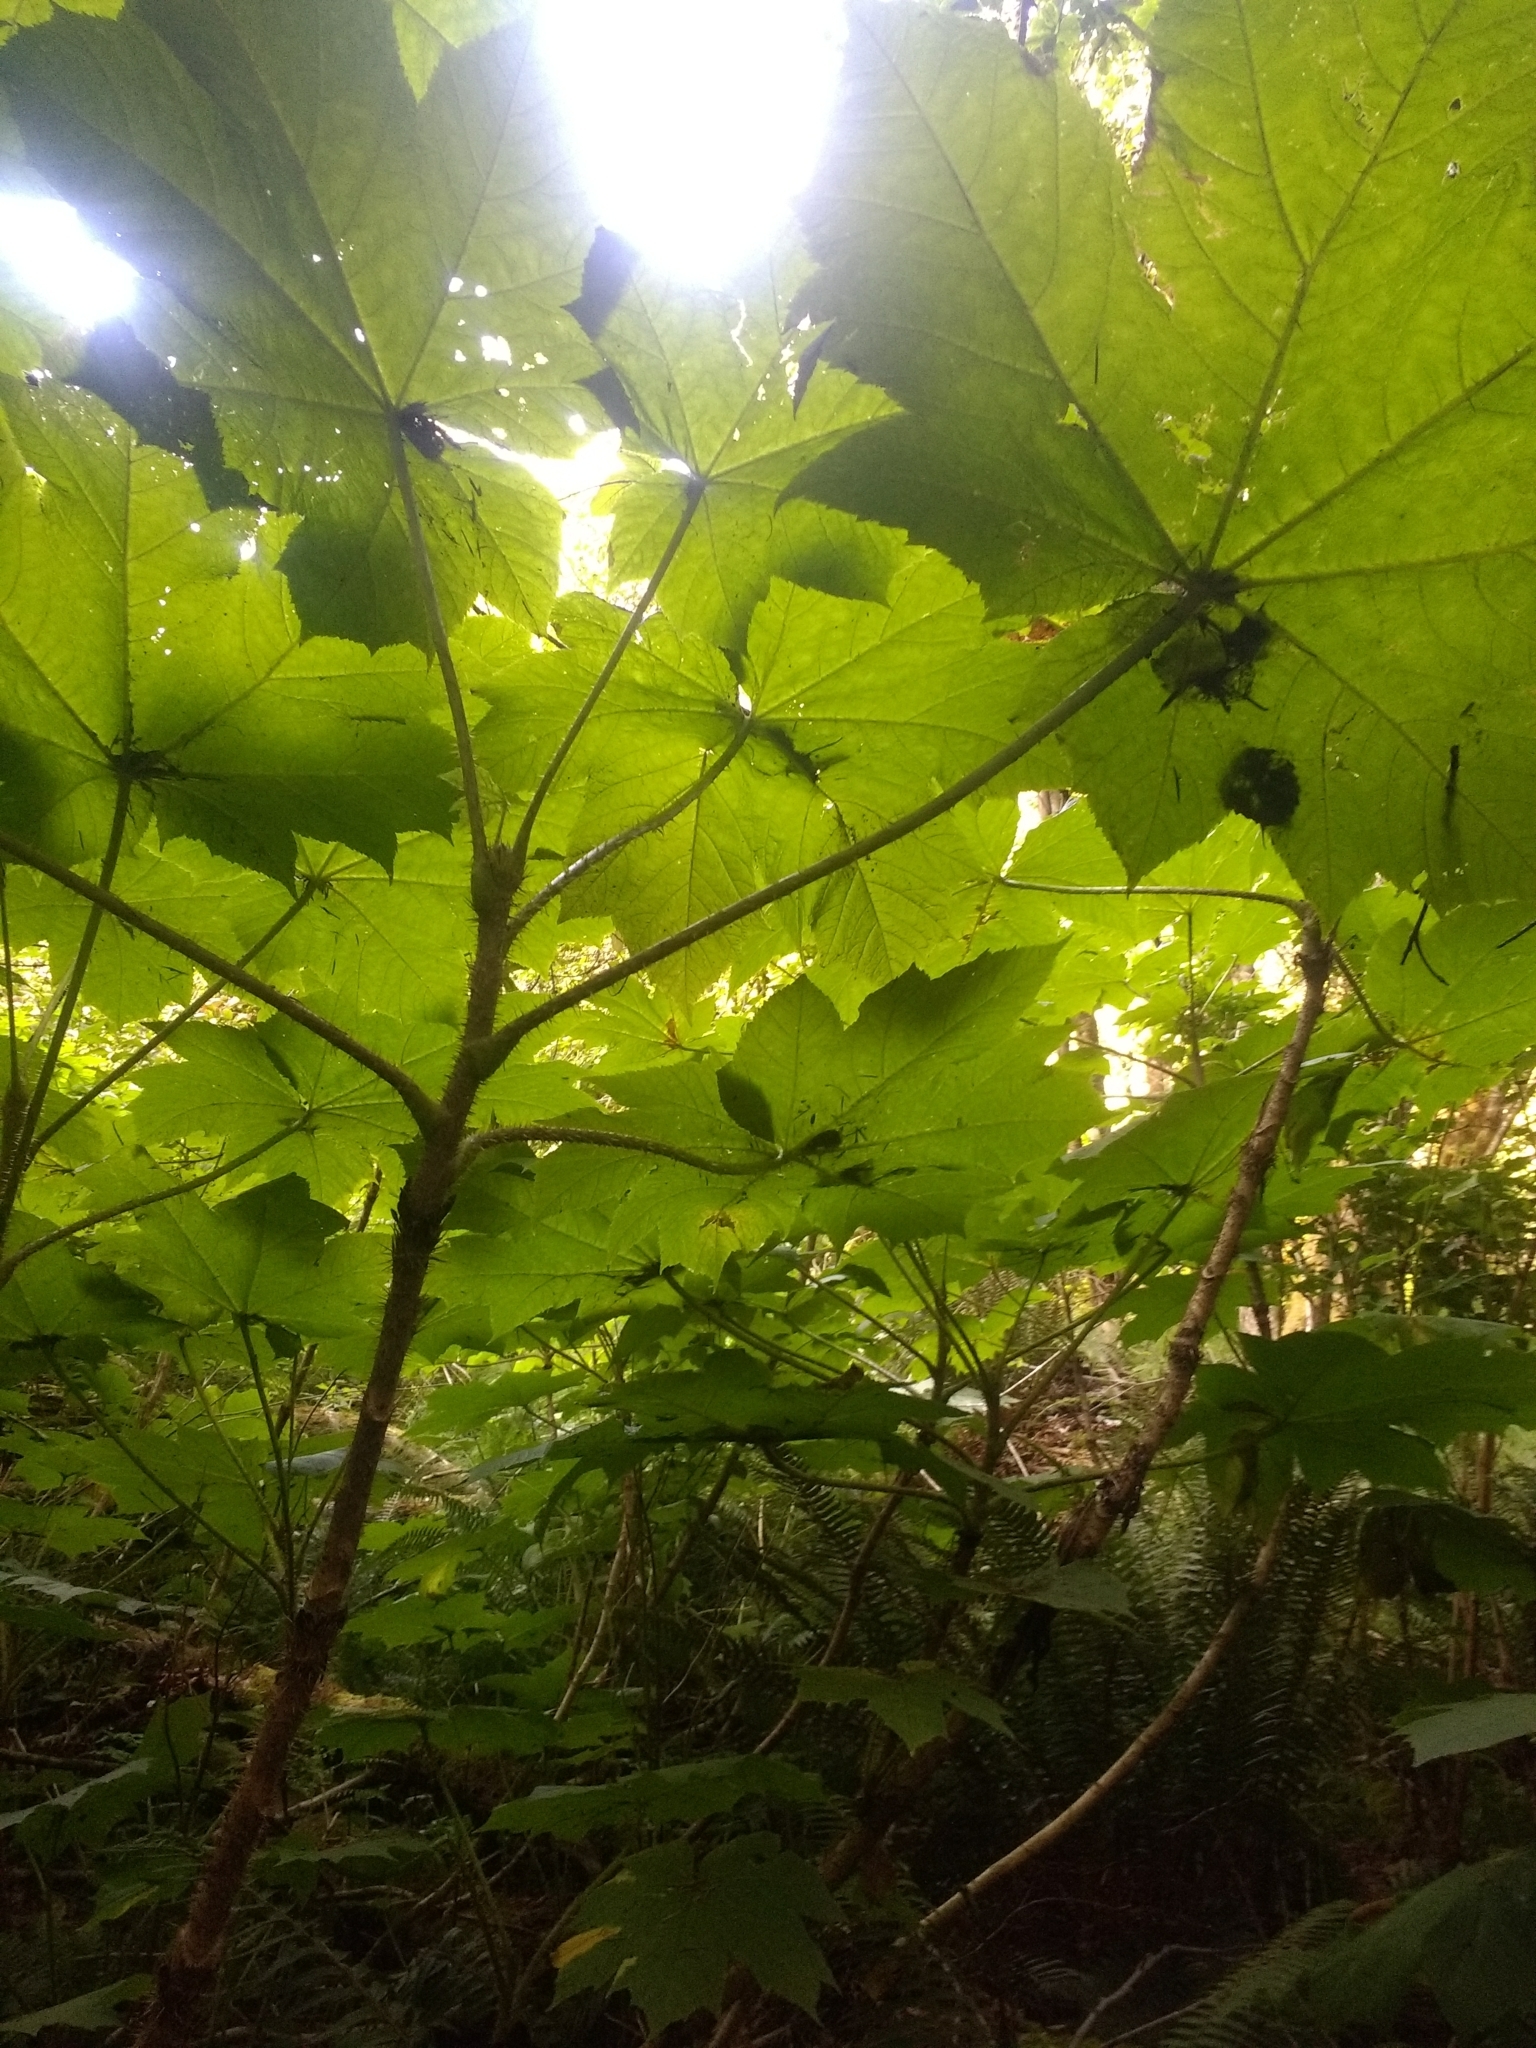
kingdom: Plantae
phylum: Tracheophyta
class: Magnoliopsida
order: Apiales
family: Araliaceae
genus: Oplopanax
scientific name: Oplopanax horridus
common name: Devil's walking-stick
